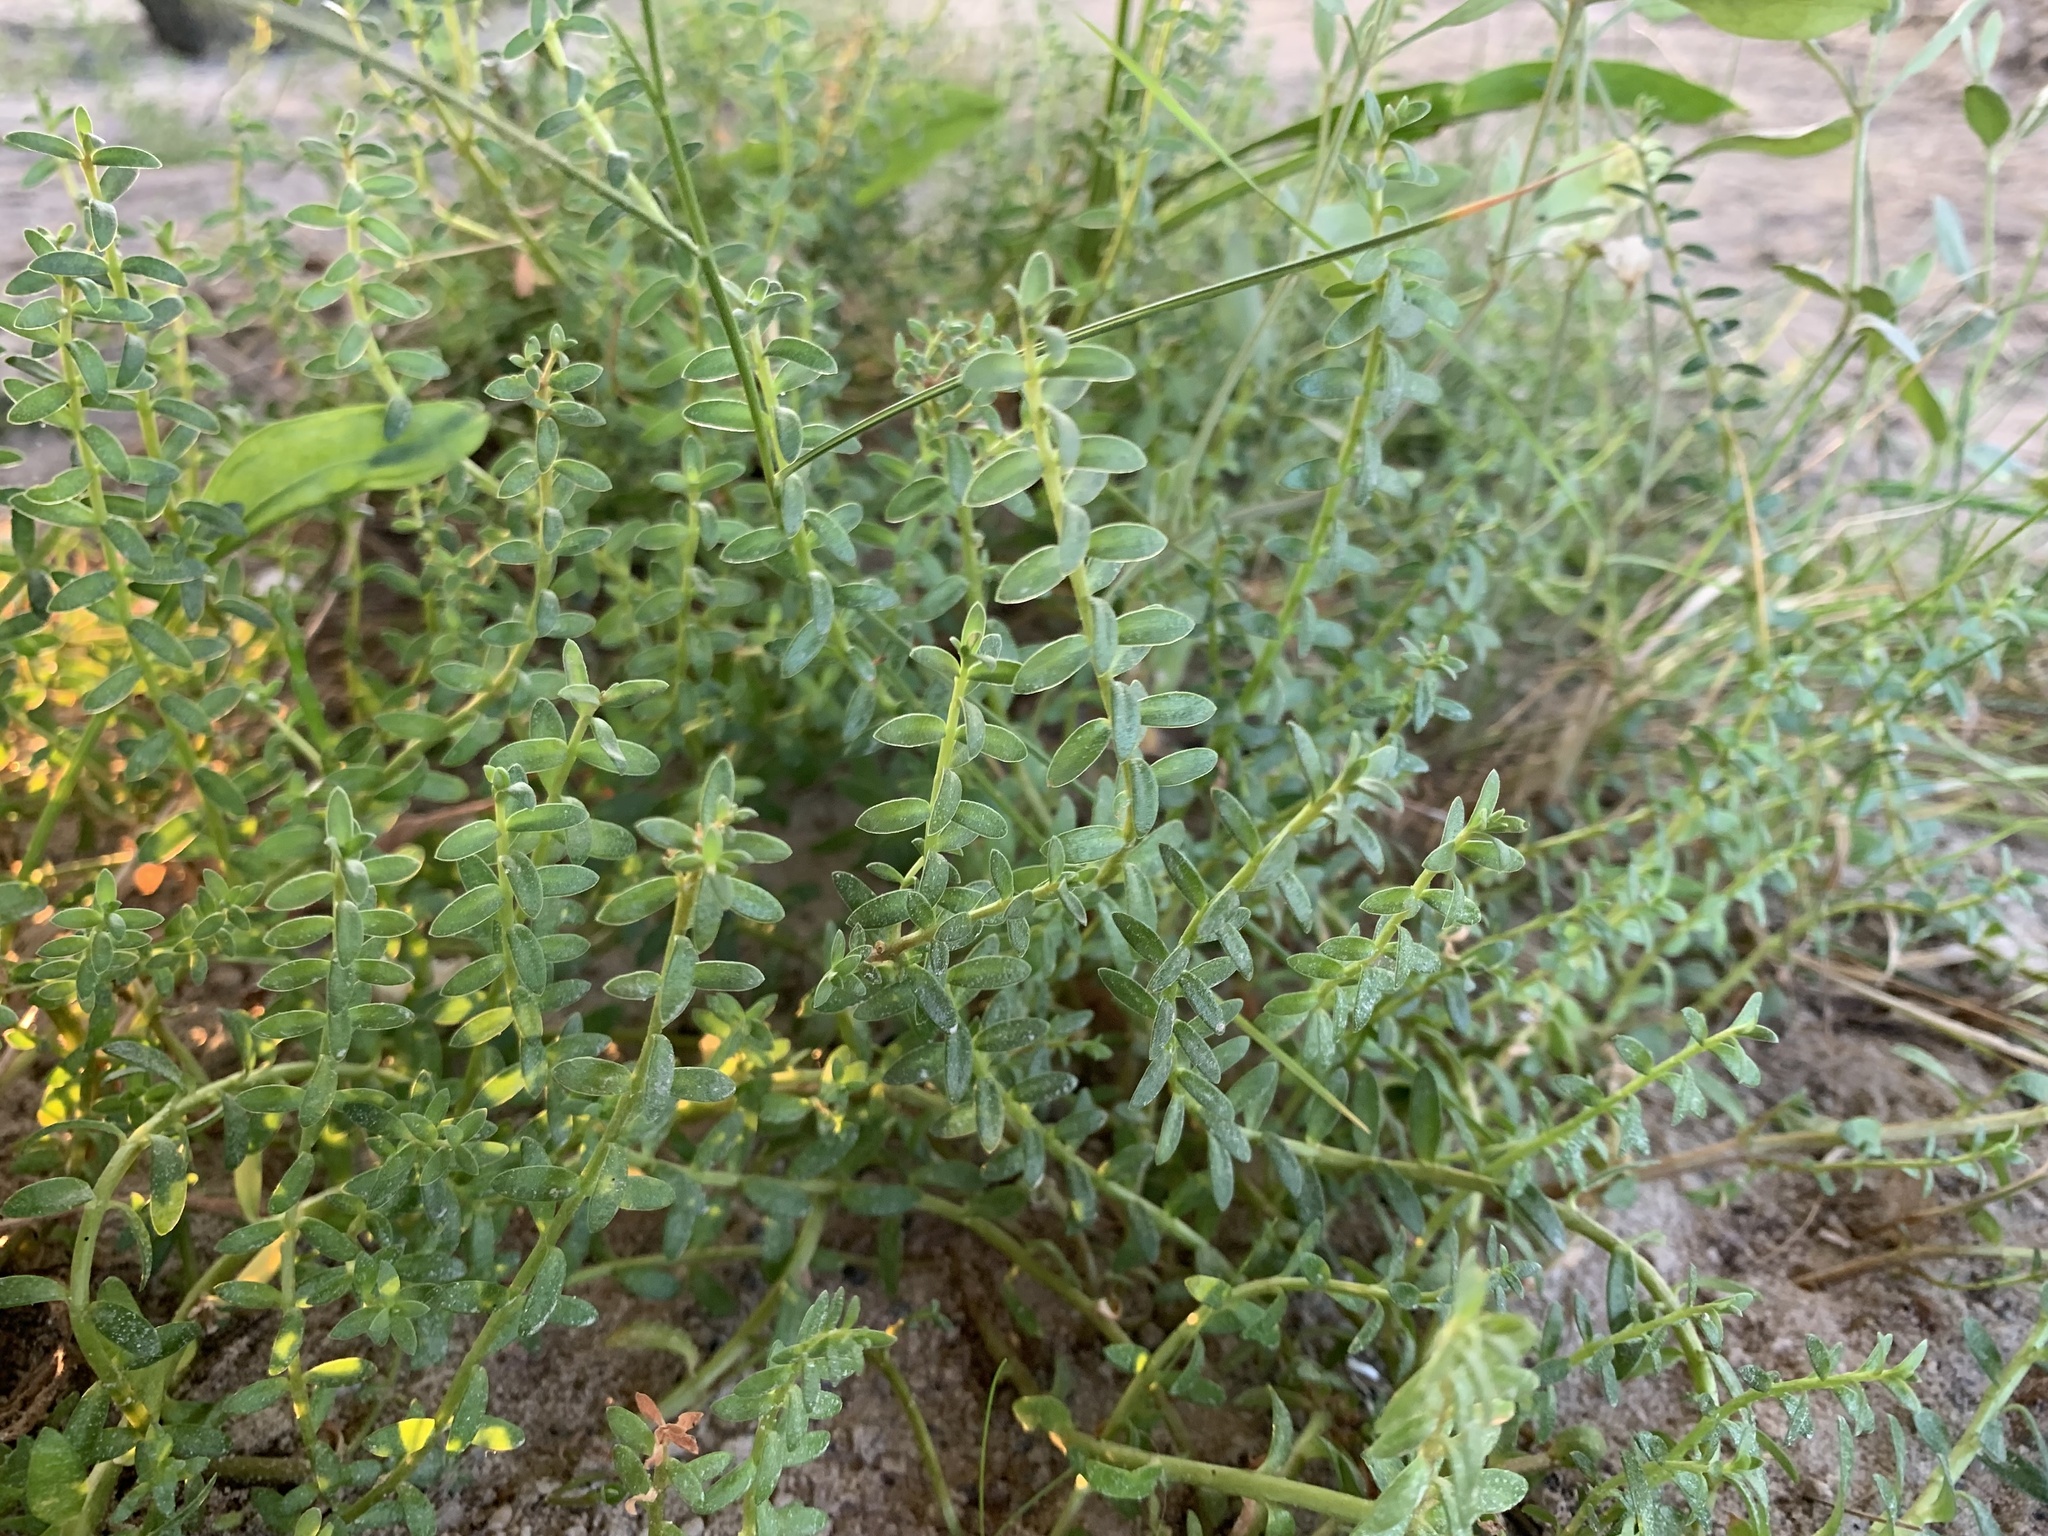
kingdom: Plantae
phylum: Tracheophyta
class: Magnoliopsida
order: Ericales
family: Primulaceae
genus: Lysimachia
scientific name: Lysimachia maritima
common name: Sea milkwort
